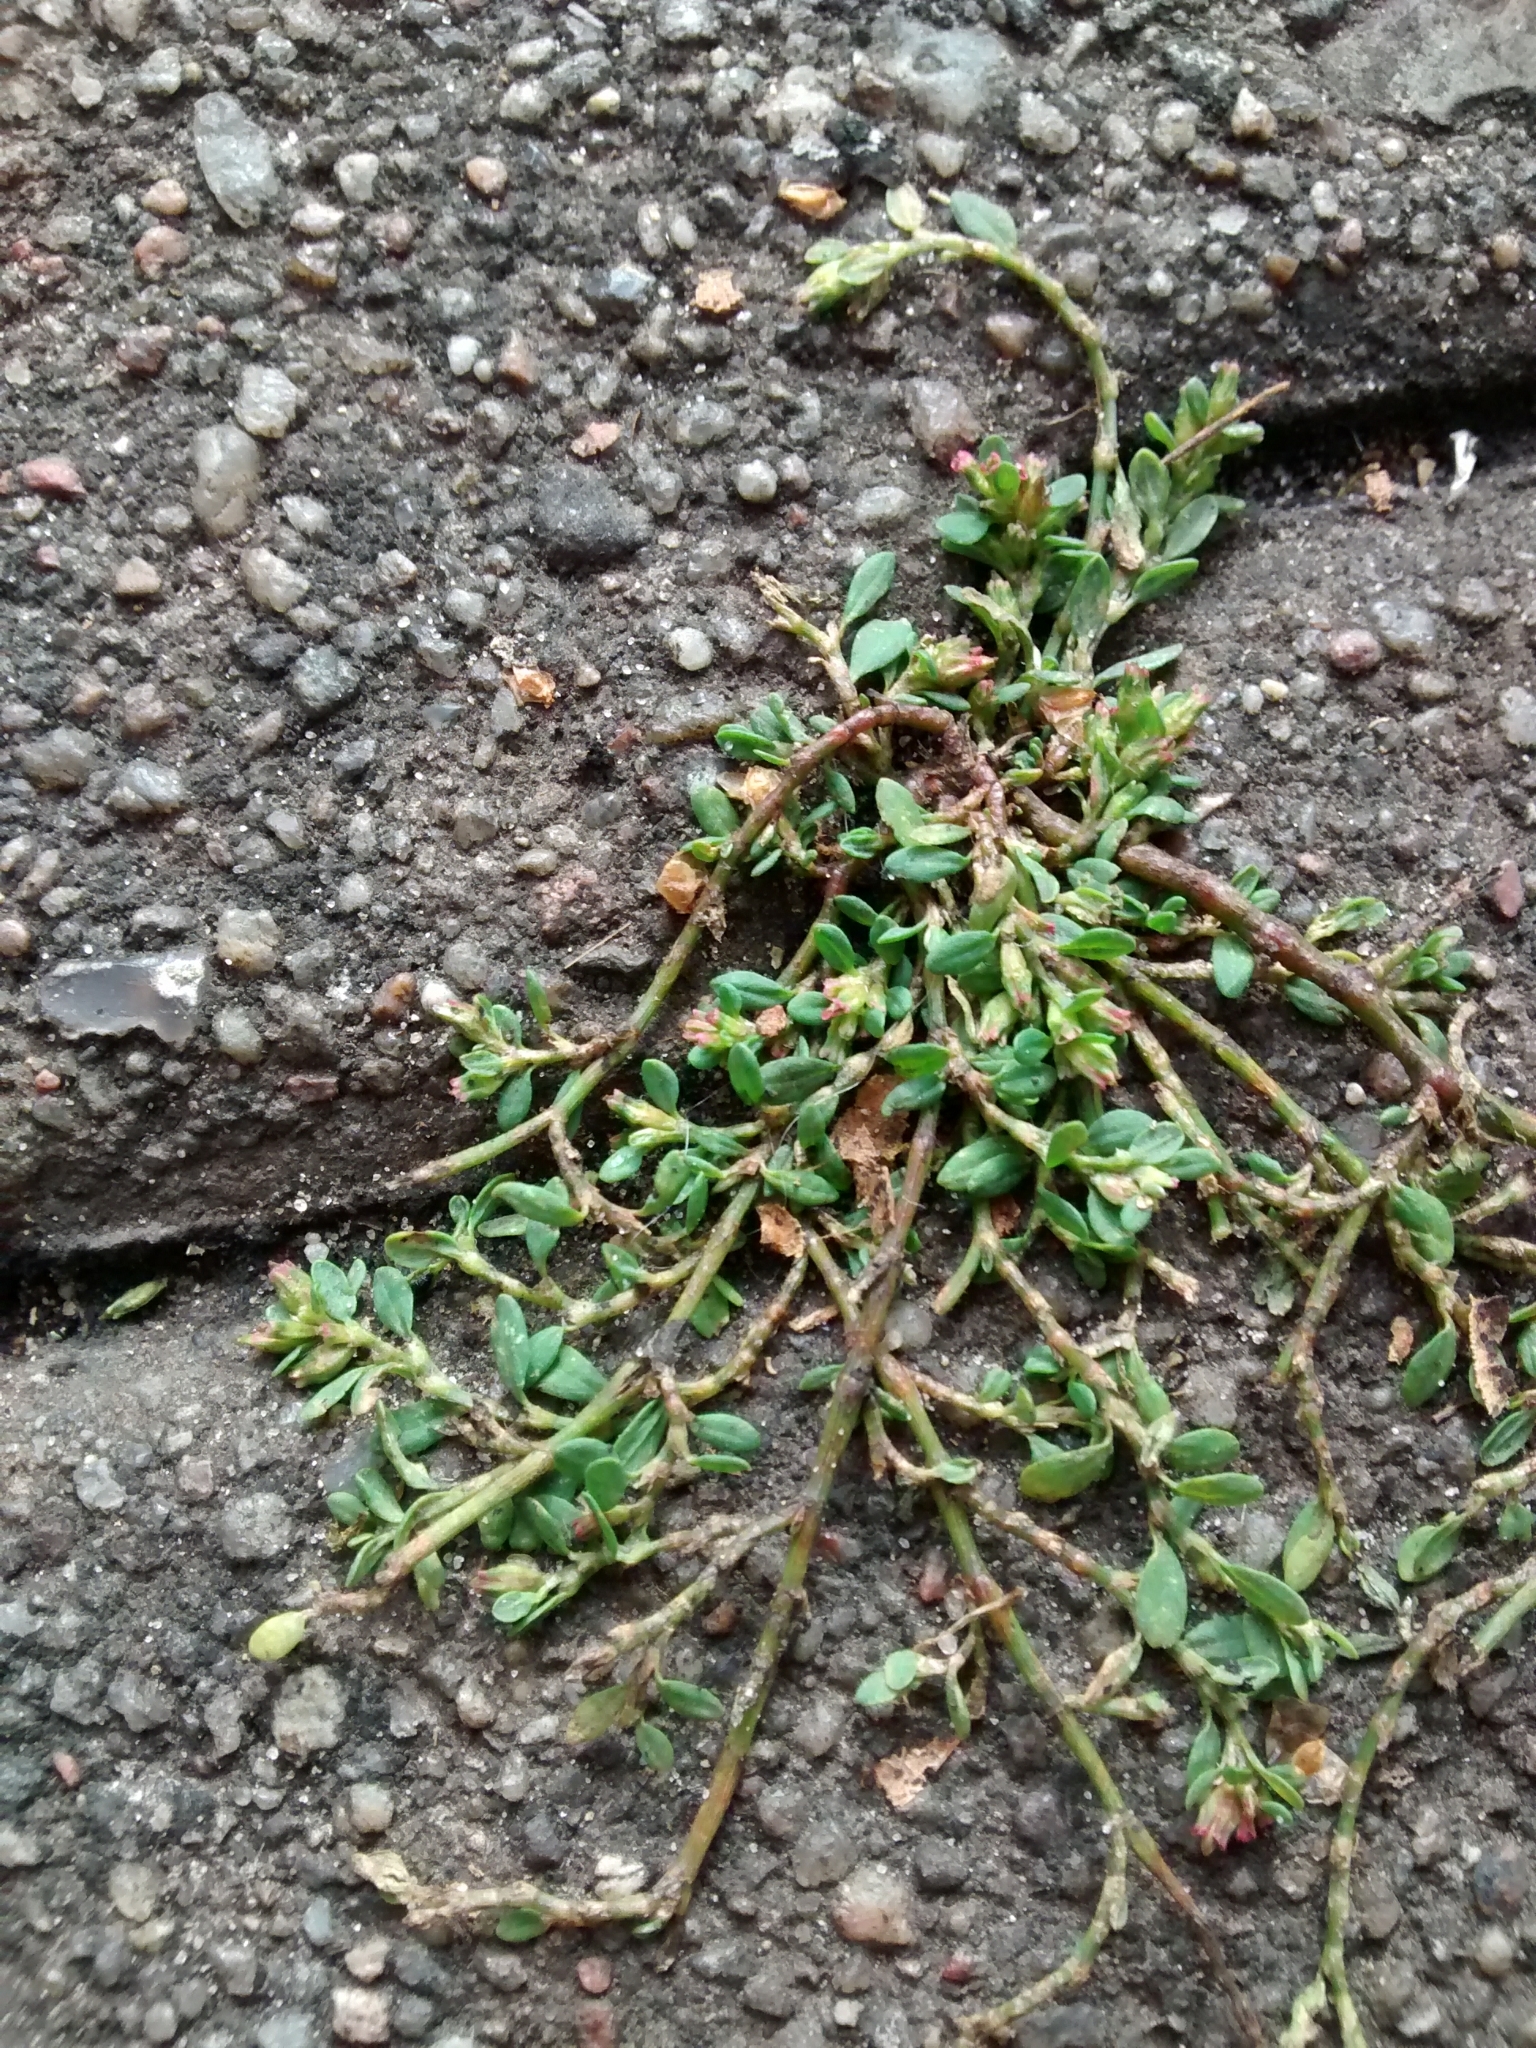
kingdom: Plantae
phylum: Tracheophyta
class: Magnoliopsida
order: Caryophyllales
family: Polygonaceae
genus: Polygonum
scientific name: Polygonum arenastrum
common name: Equal-leaved knotgrass
